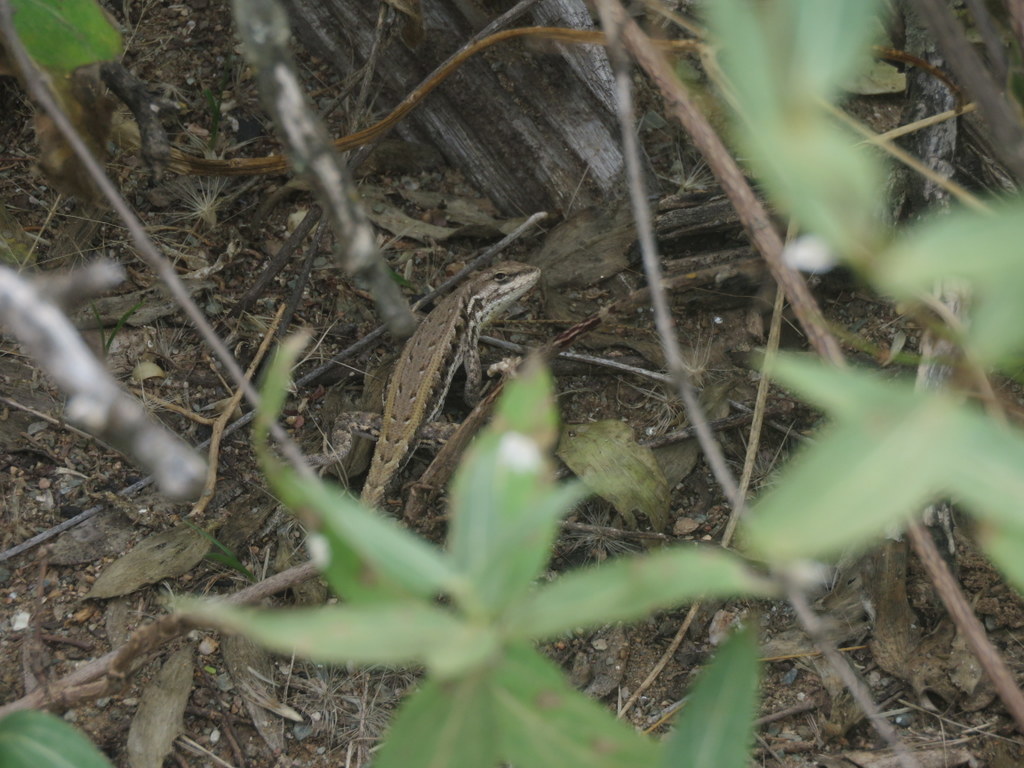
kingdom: Animalia
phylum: Chordata
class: Squamata
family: Liolaemidae
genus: Liolaemus
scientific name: Liolaemus chacoensis
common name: Chaco tree iguana
